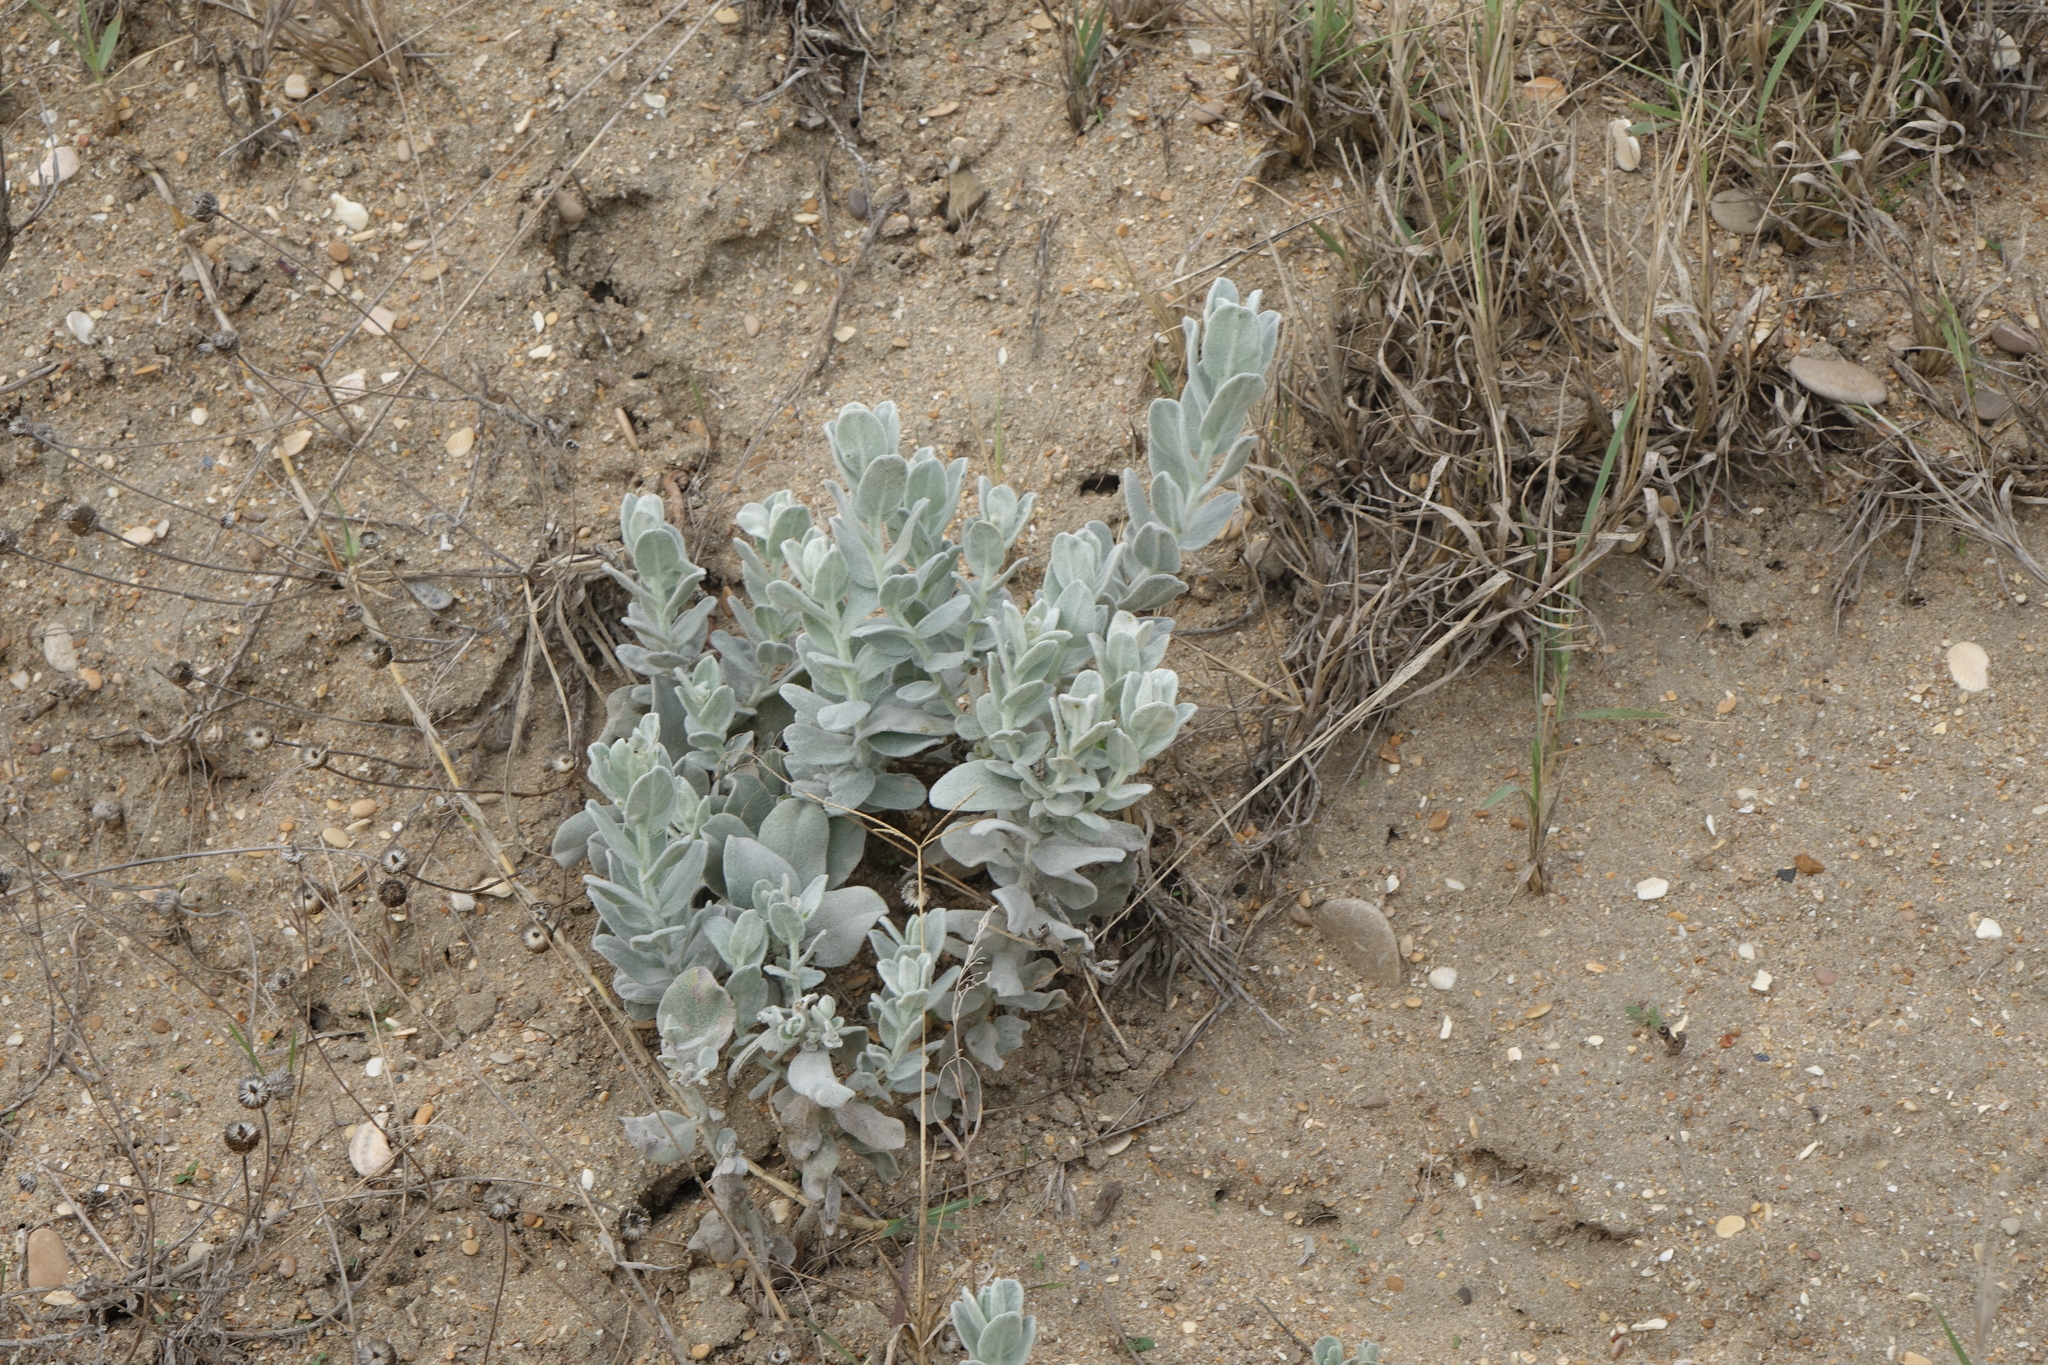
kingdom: Plantae
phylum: Tracheophyta
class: Magnoliopsida
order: Solanales
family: Convolvulaceae
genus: Convolvulus
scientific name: Convolvulus persicus
